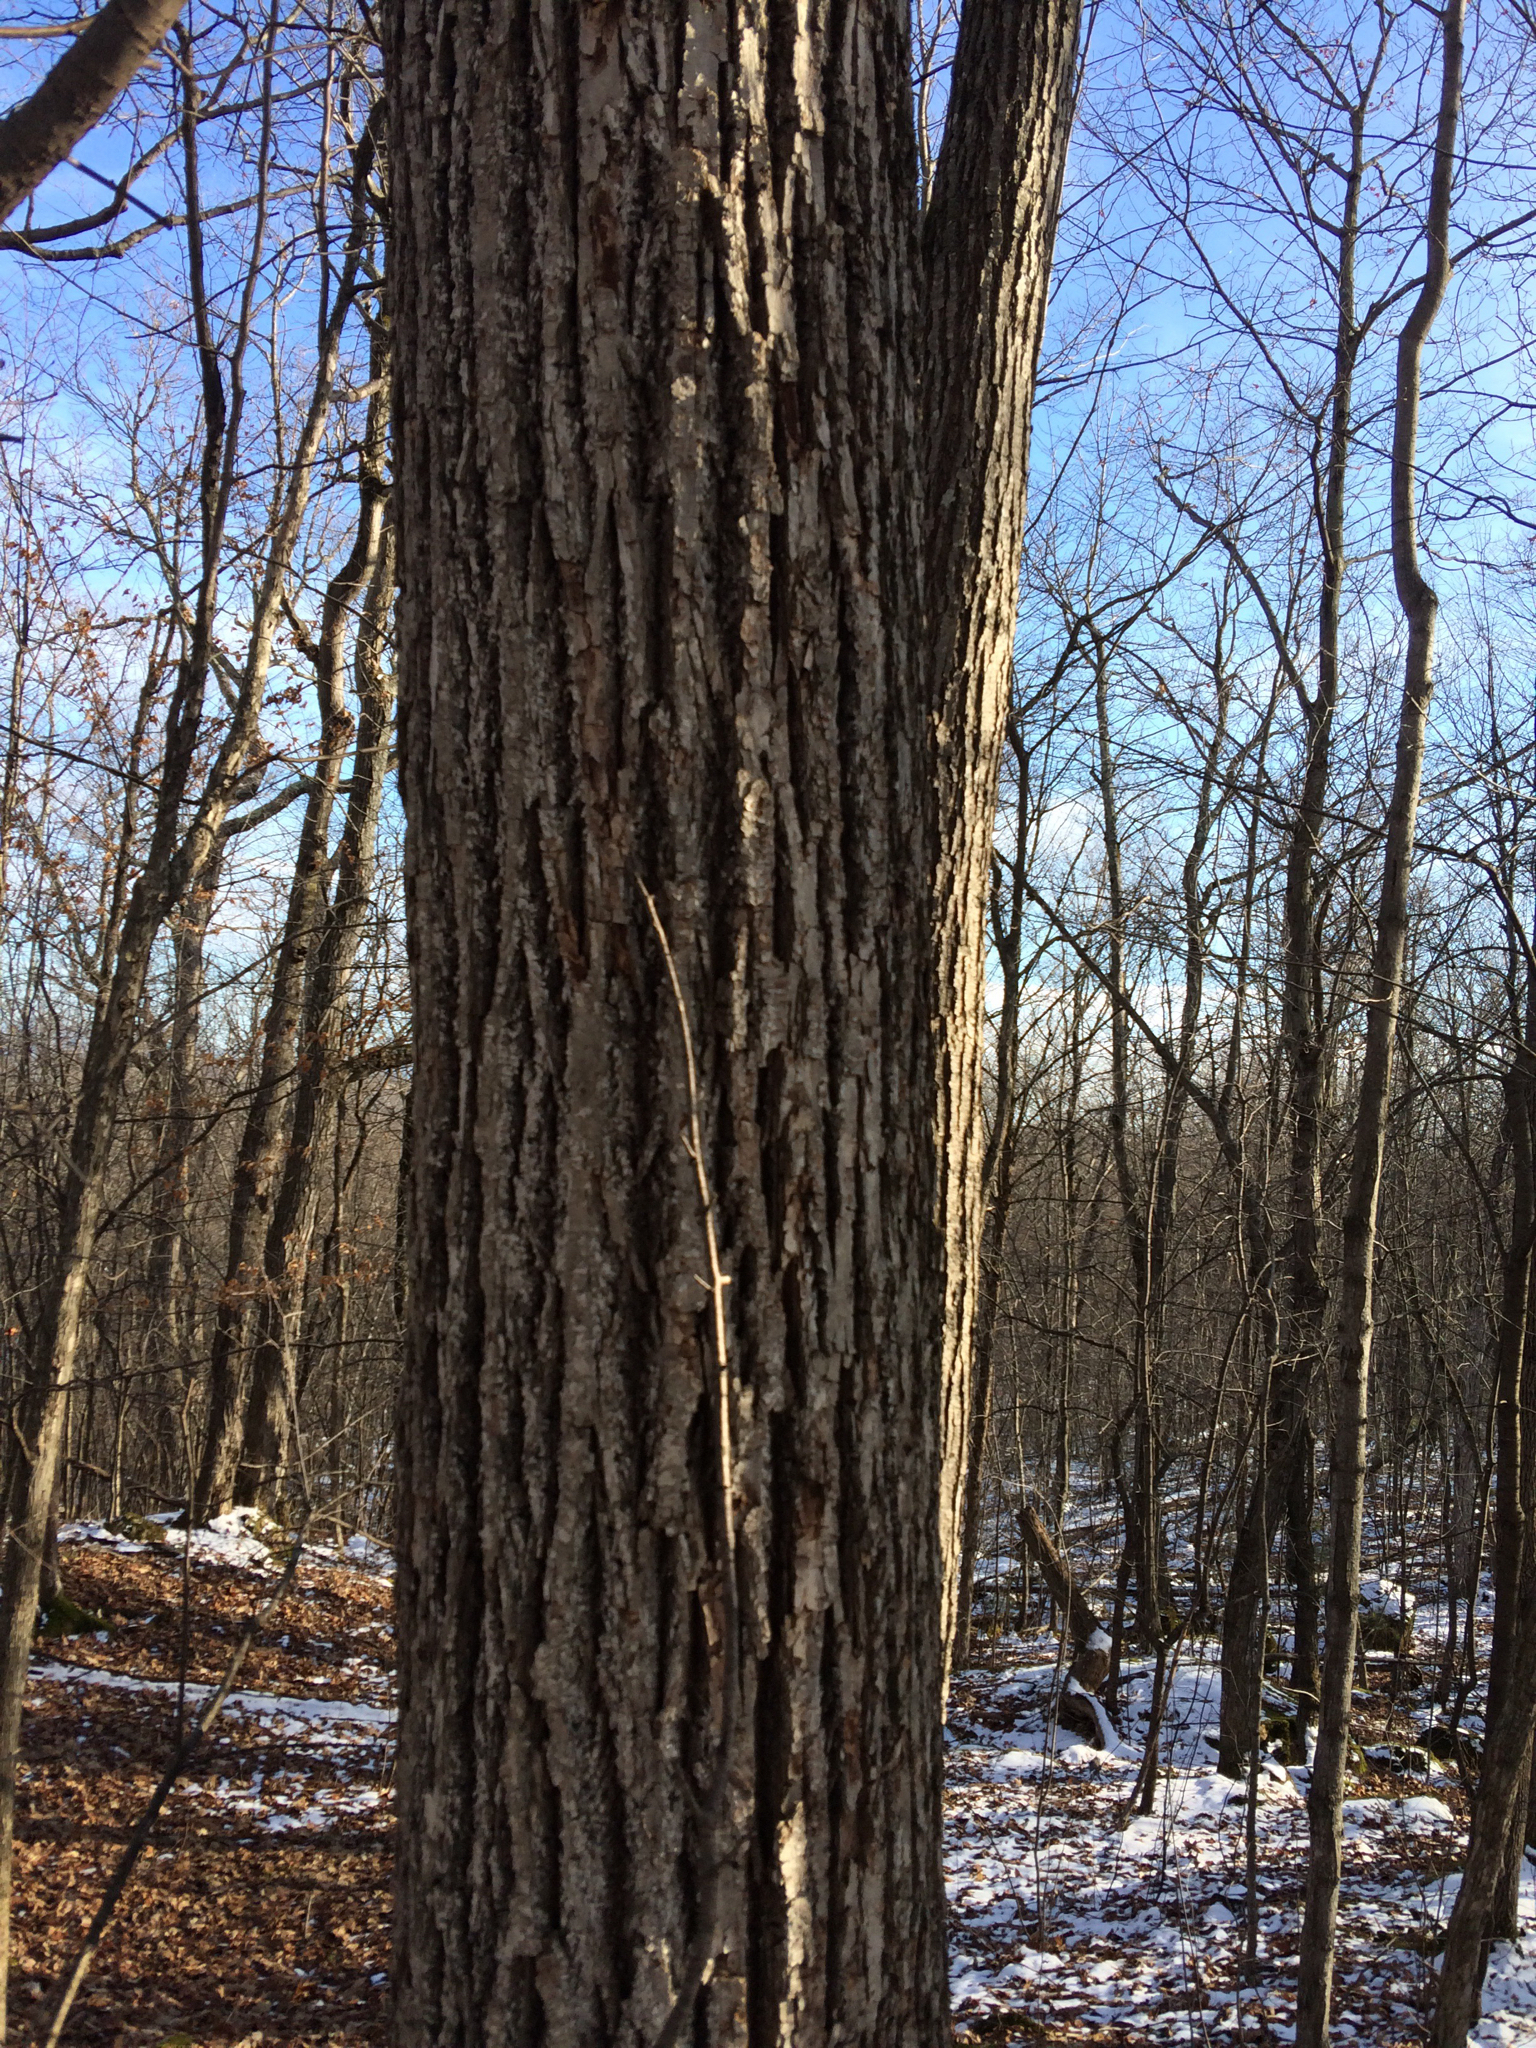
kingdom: Plantae
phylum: Tracheophyta
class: Magnoliopsida
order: Malvales
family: Malvaceae
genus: Tilia
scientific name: Tilia americana
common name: Basswood
